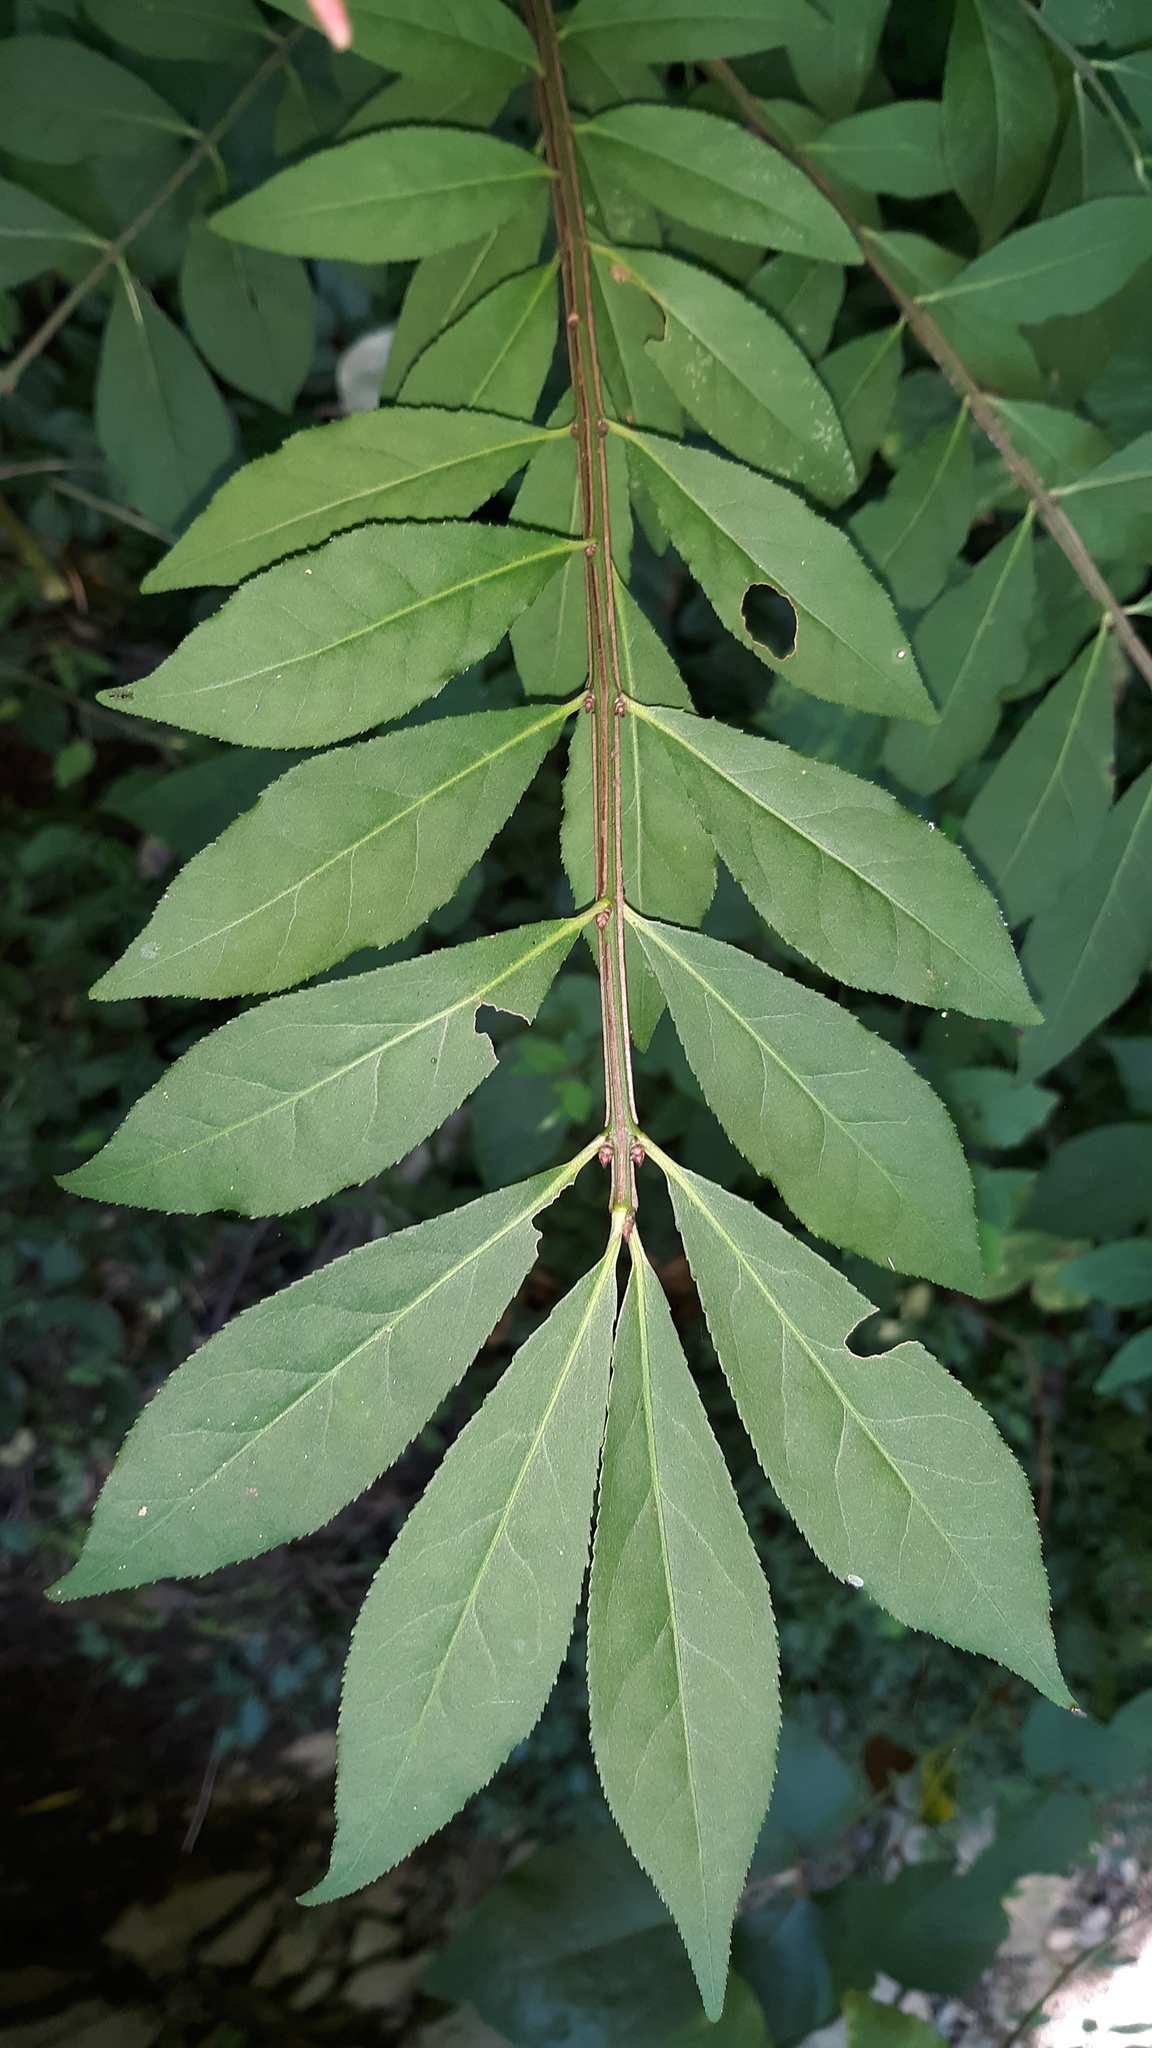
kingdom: Plantae
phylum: Tracheophyta
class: Magnoliopsida
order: Celastrales
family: Celastraceae
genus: Euonymus
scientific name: Euonymus alatus
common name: Winged euonymus
